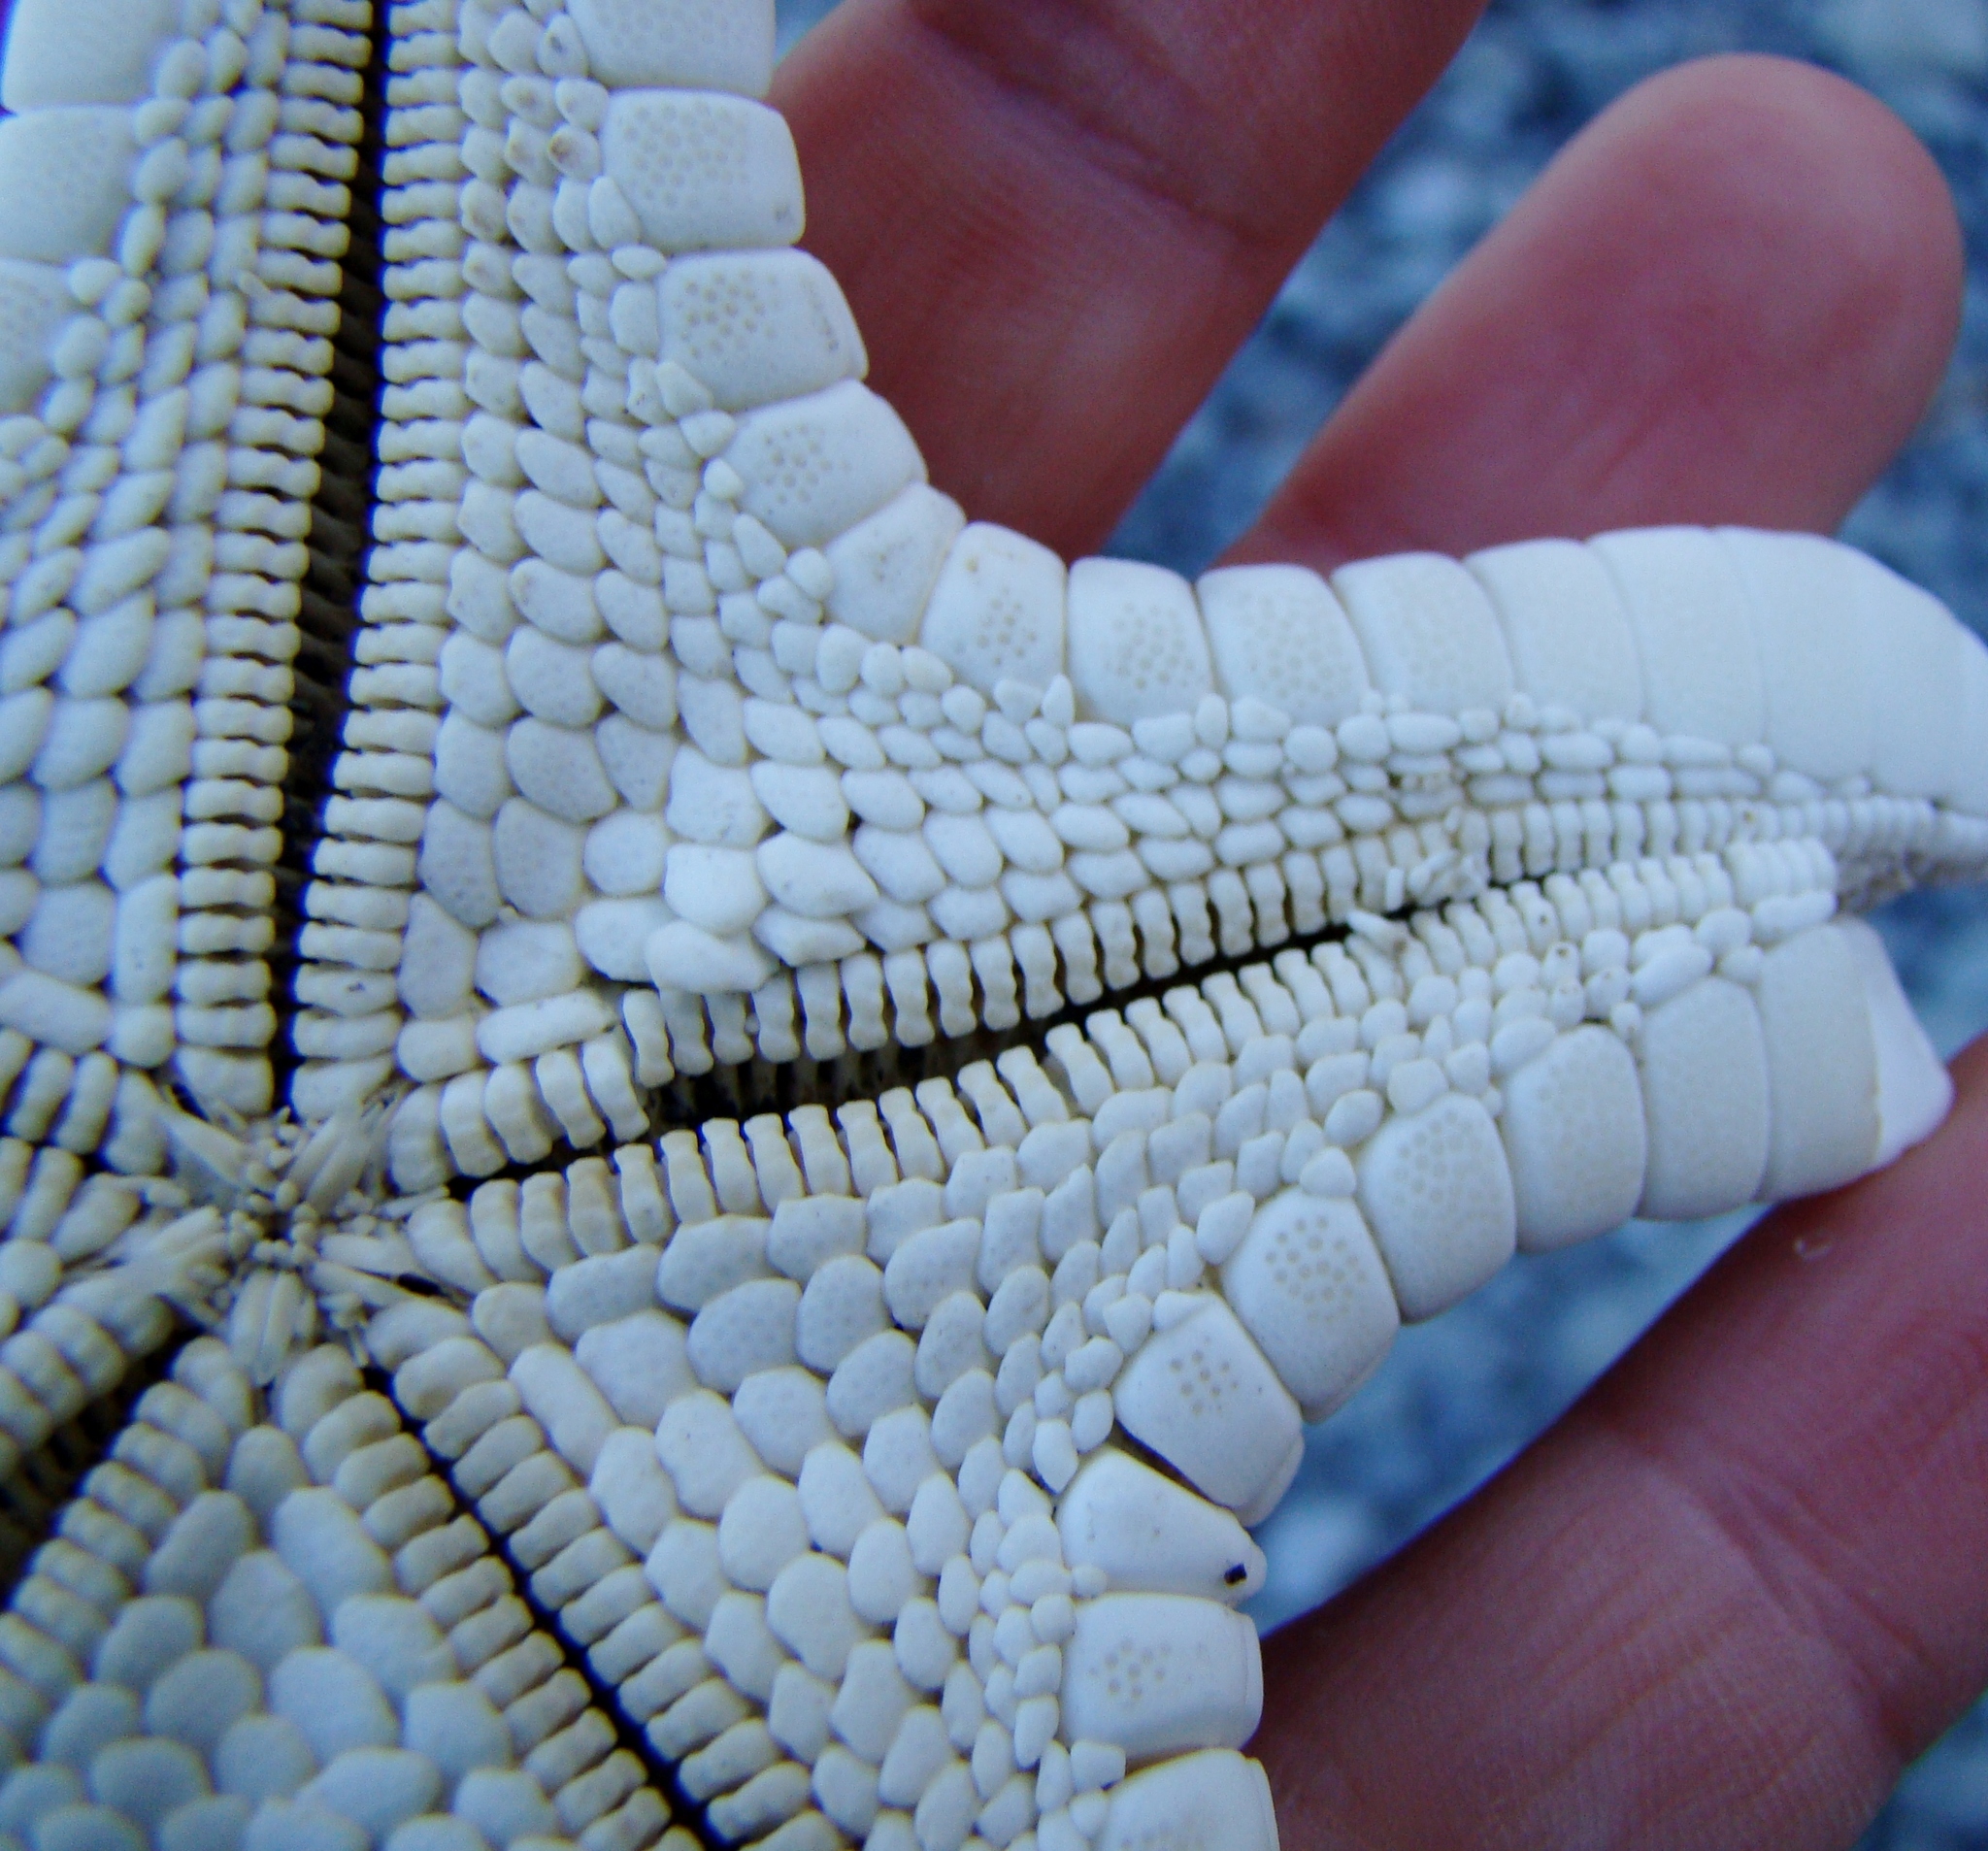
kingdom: Animalia
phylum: Echinodermata
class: Asteroidea
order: Valvatida
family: Odontasteridae
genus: Diplodontias
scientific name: Diplodontias dilatatus
